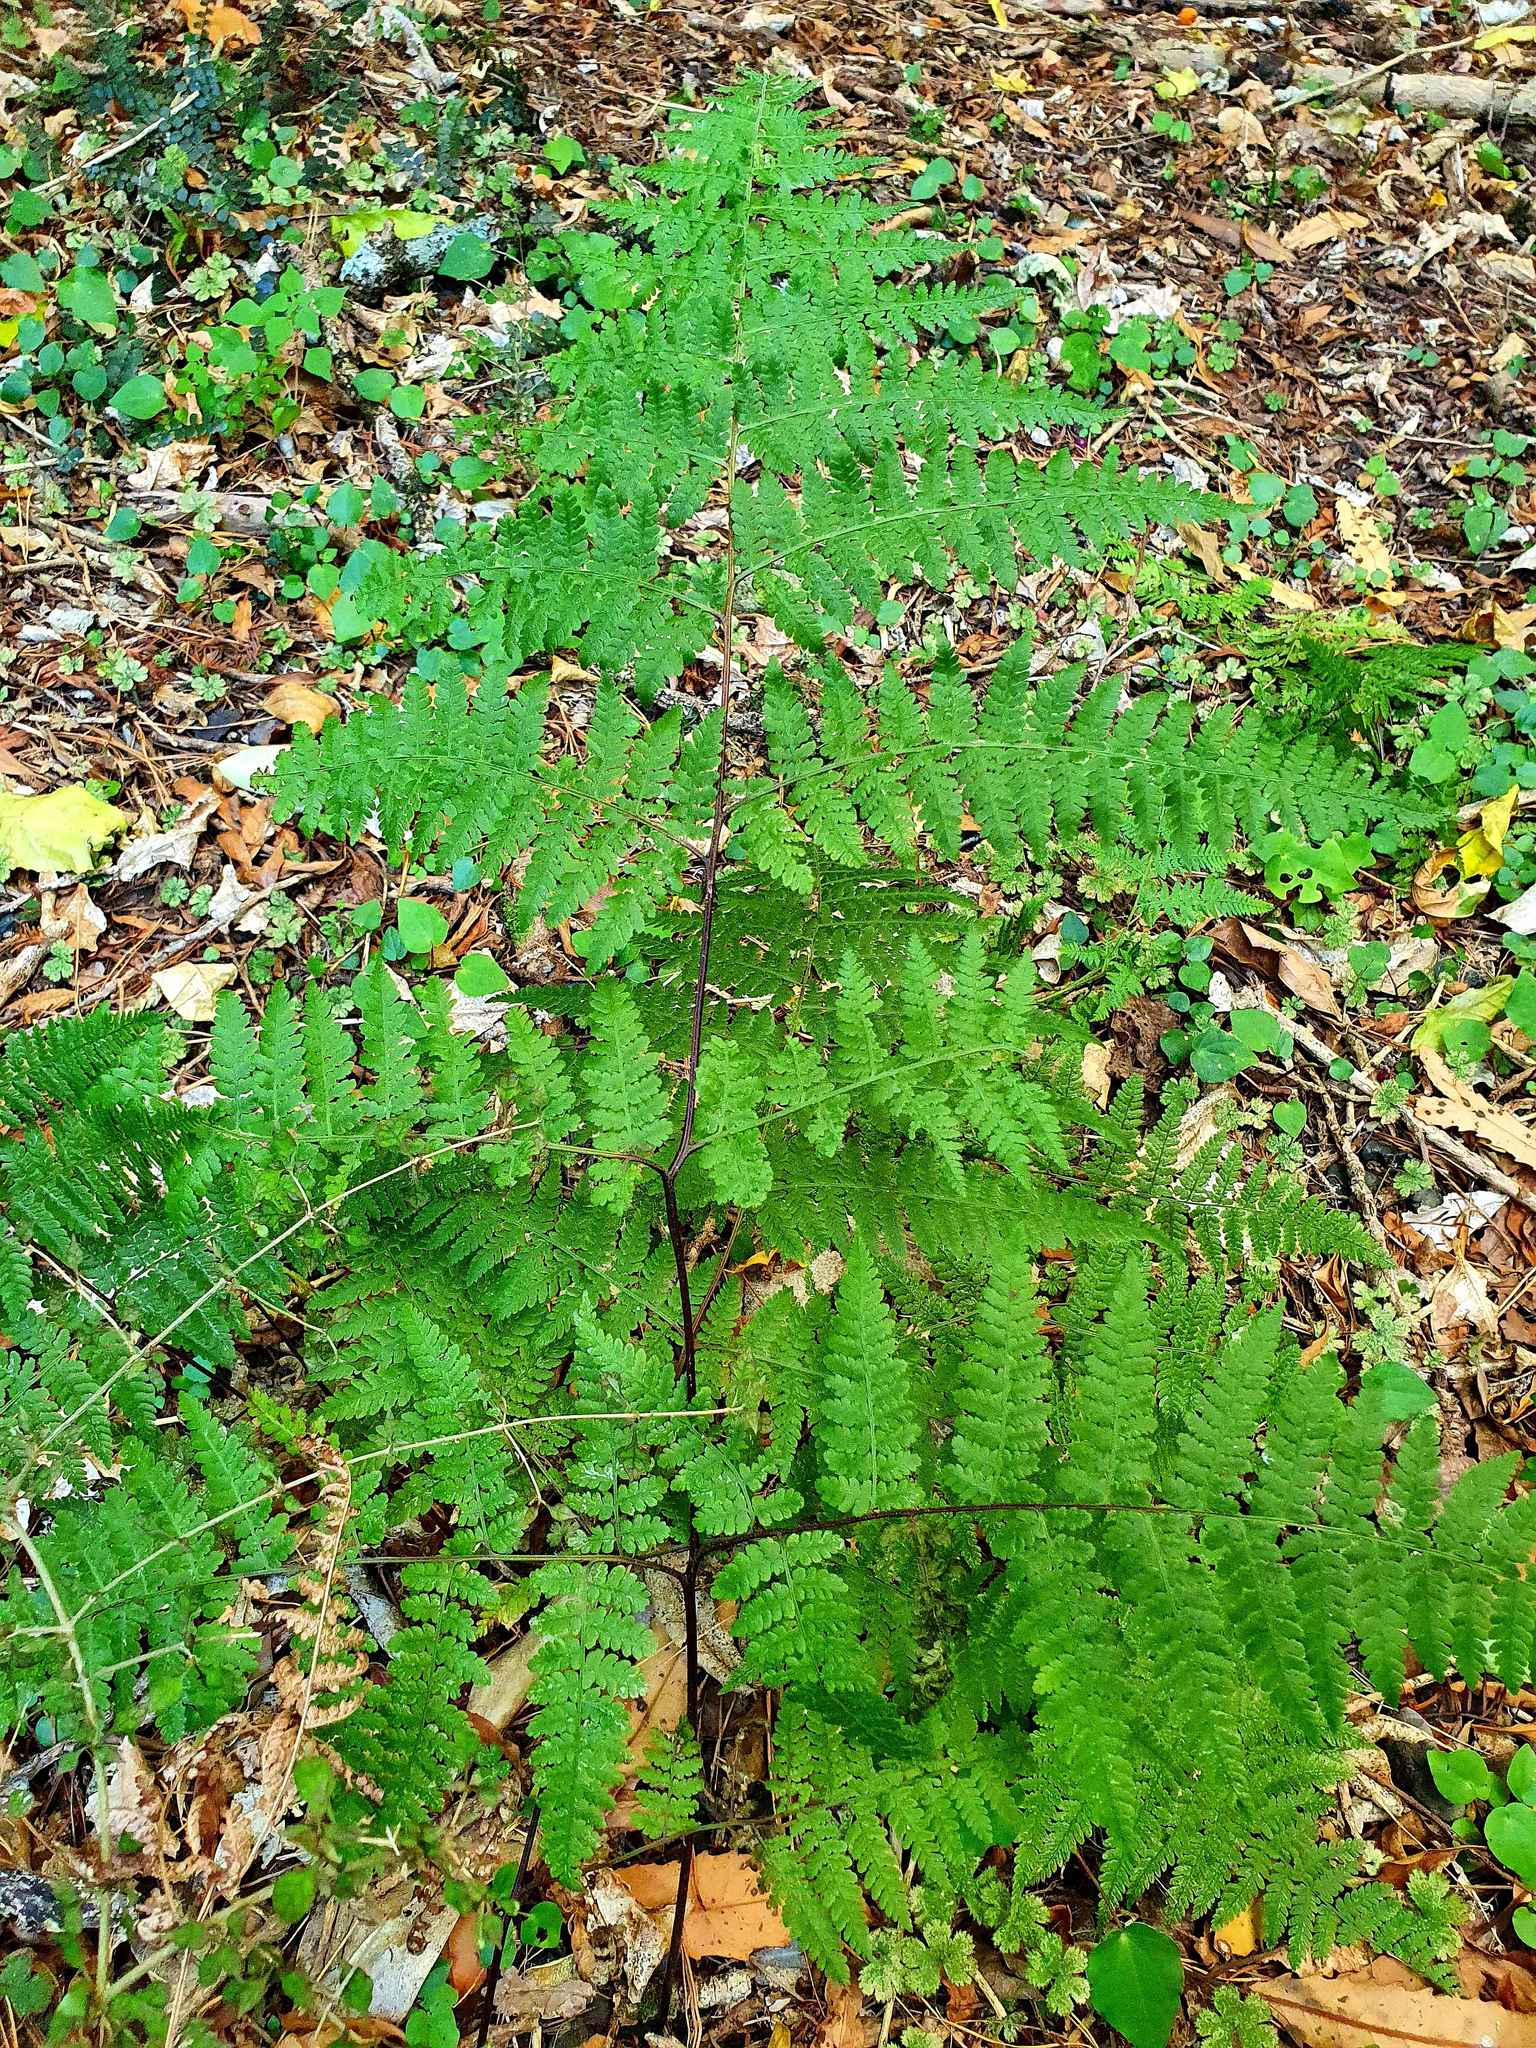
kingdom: Plantae
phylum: Tracheophyta
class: Polypodiopsida
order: Polypodiales
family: Dennstaedtiaceae
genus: Hypolepis
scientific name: Hypolepis ambigua
